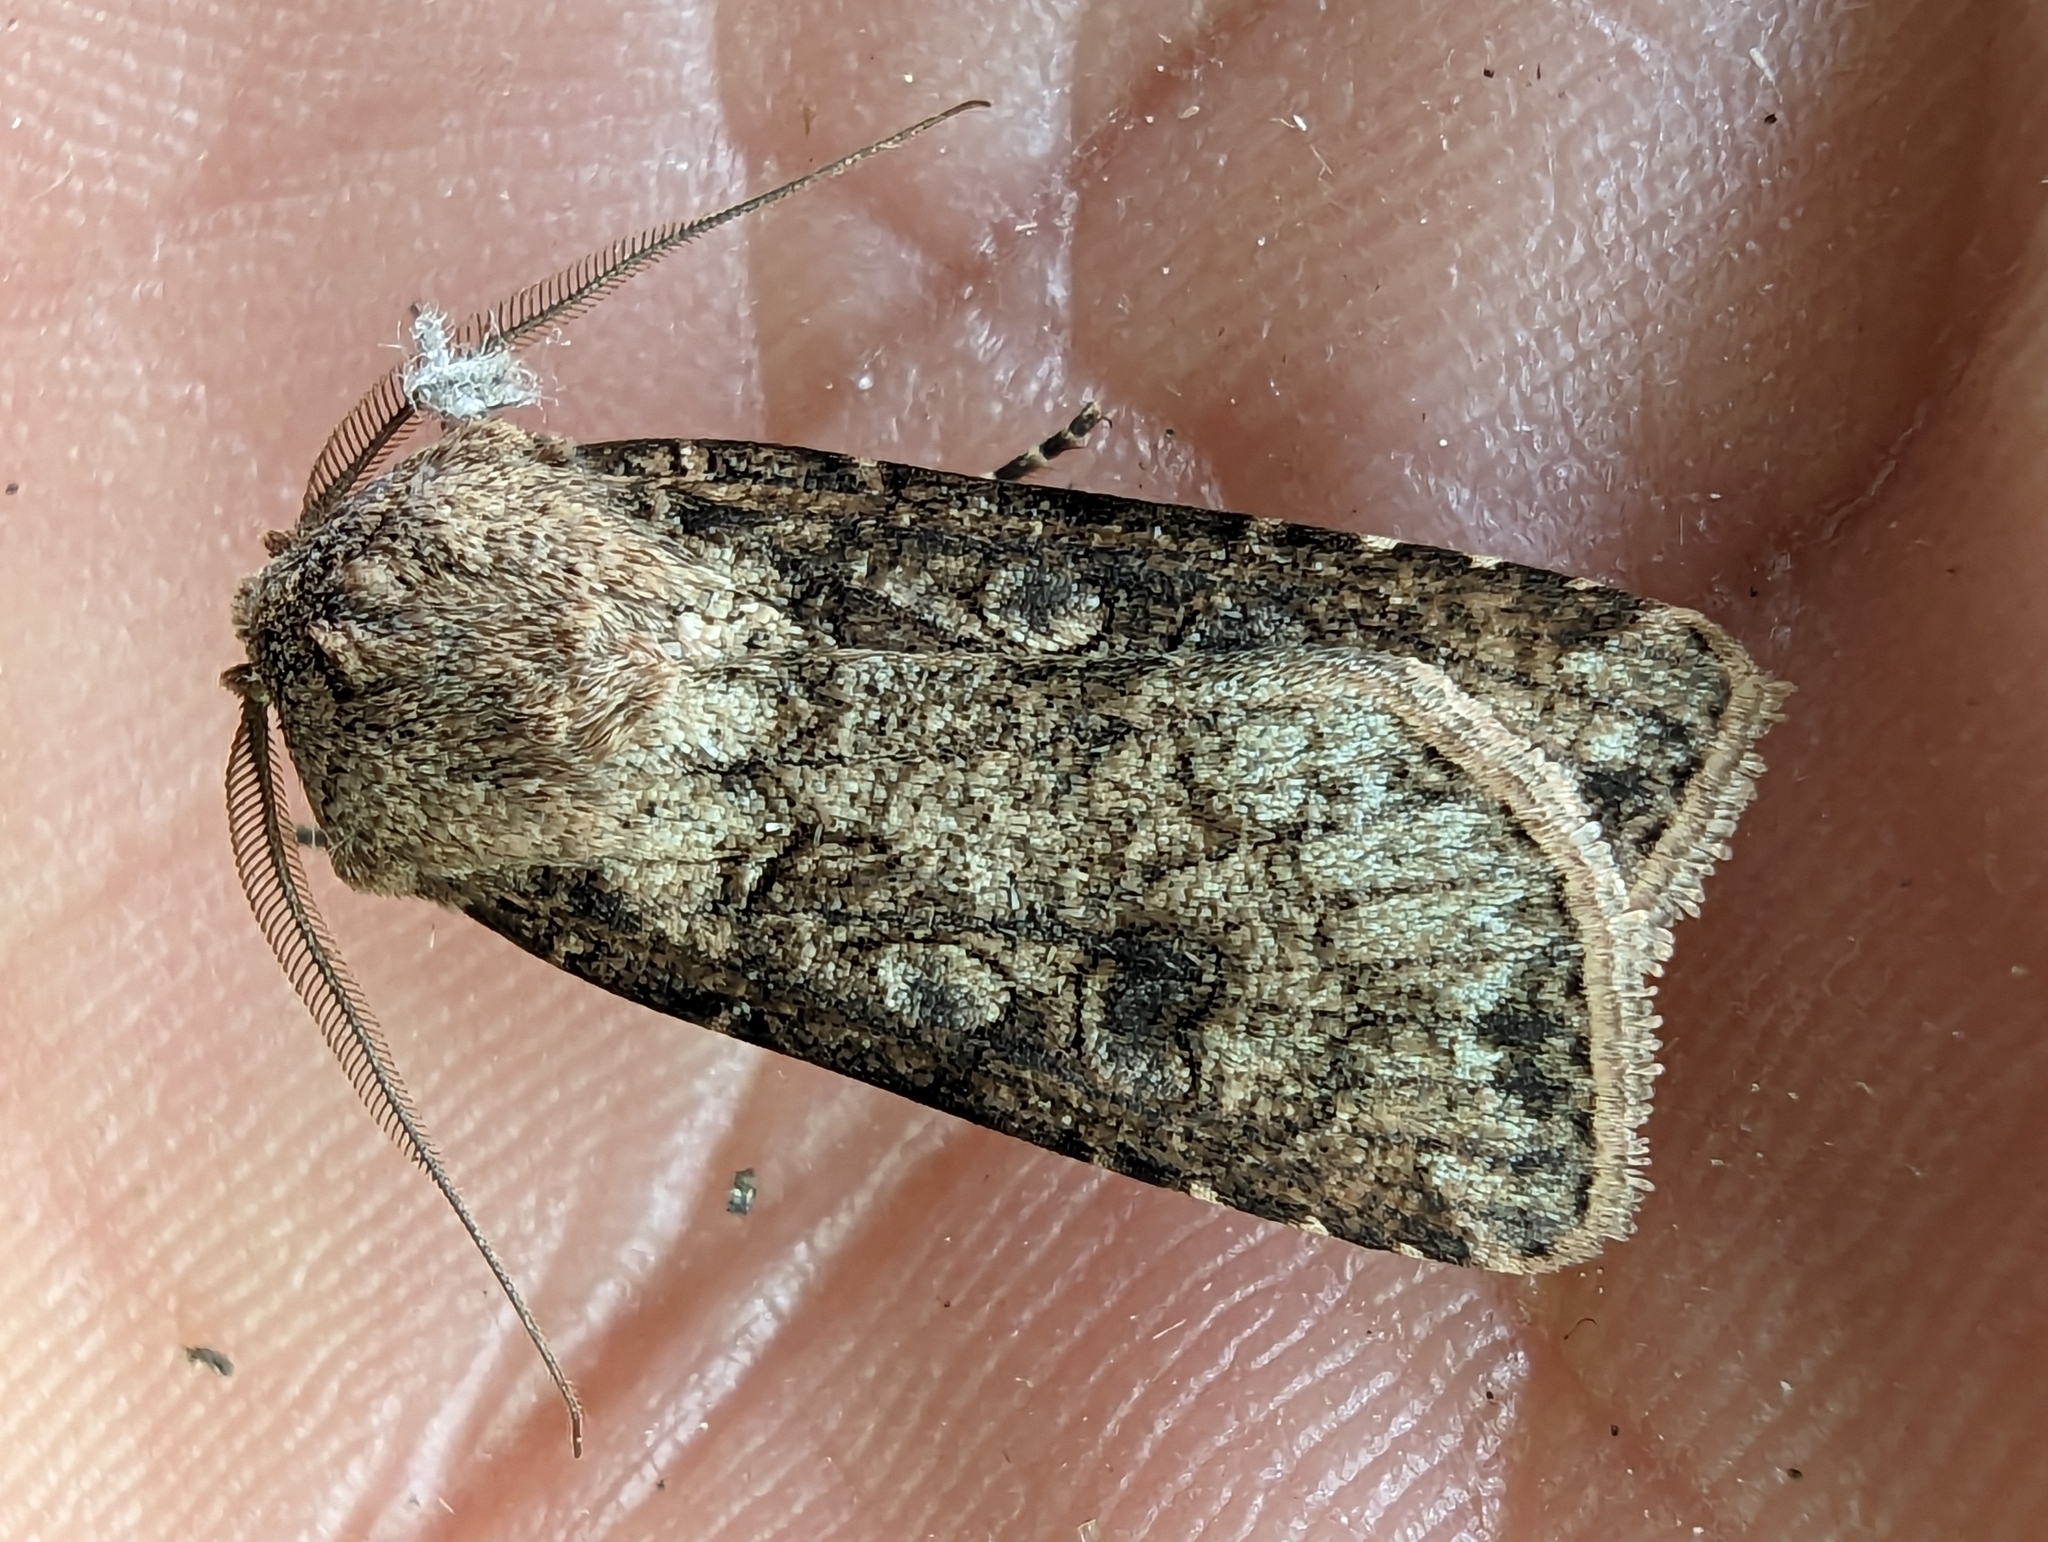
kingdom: Animalia
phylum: Arthropoda
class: Insecta
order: Lepidoptera
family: Noctuidae
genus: Agrotis
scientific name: Agrotis segetum
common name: Turnip moth
